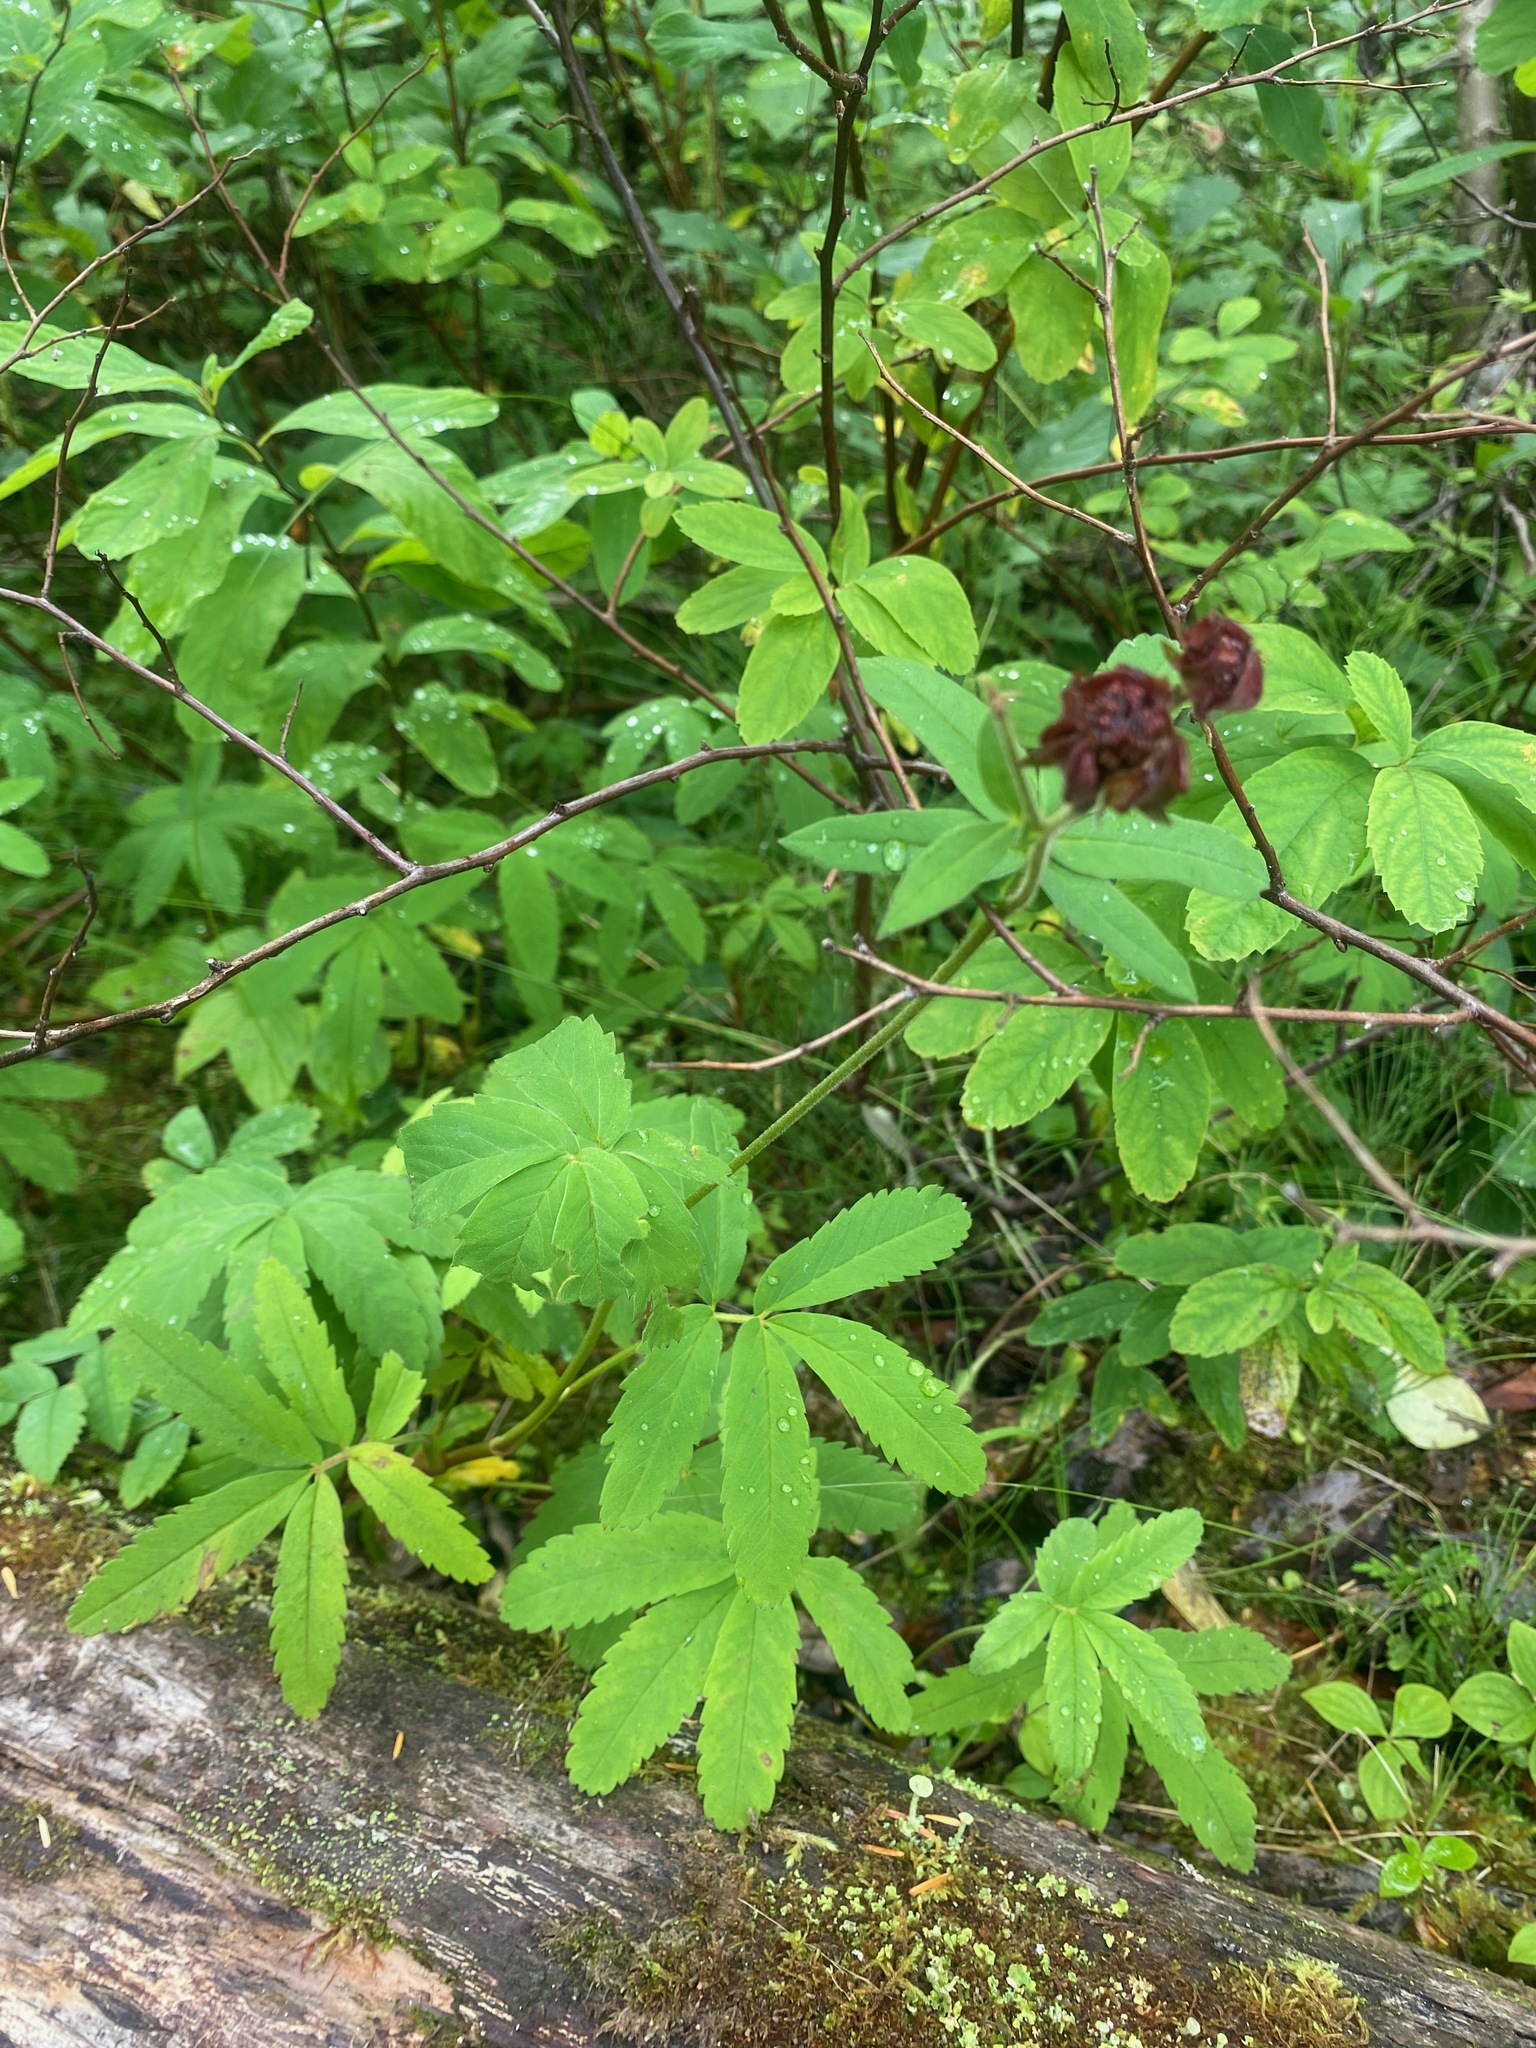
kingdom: Plantae
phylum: Tracheophyta
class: Magnoliopsida
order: Rosales
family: Rosaceae
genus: Comarum
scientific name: Comarum palustre
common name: Marsh cinquefoil
